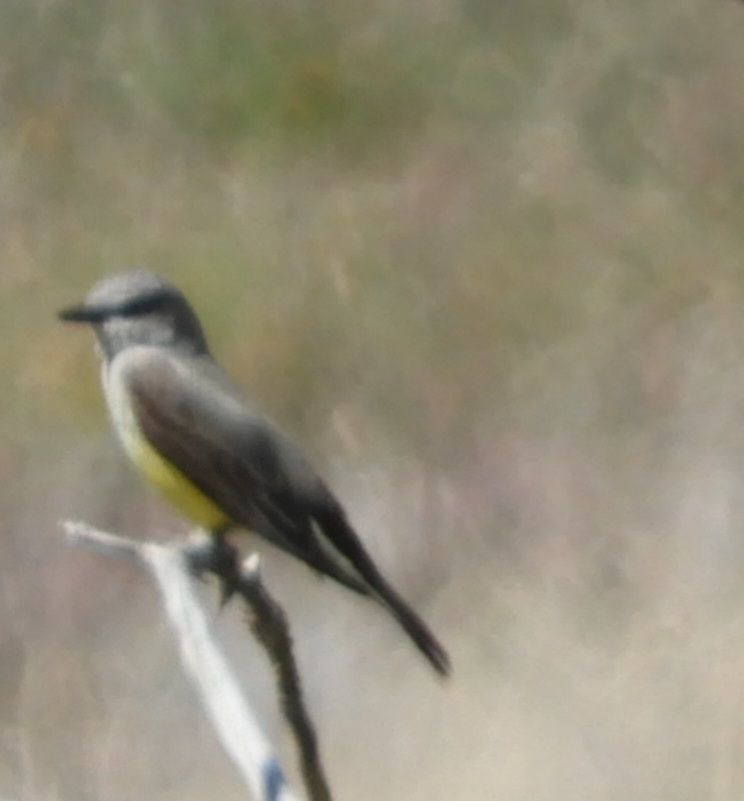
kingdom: Animalia
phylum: Chordata
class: Aves
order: Passeriformes
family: Tyrannidae
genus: Tyrannus
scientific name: Tyrannus verticalis
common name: Western kingbird
